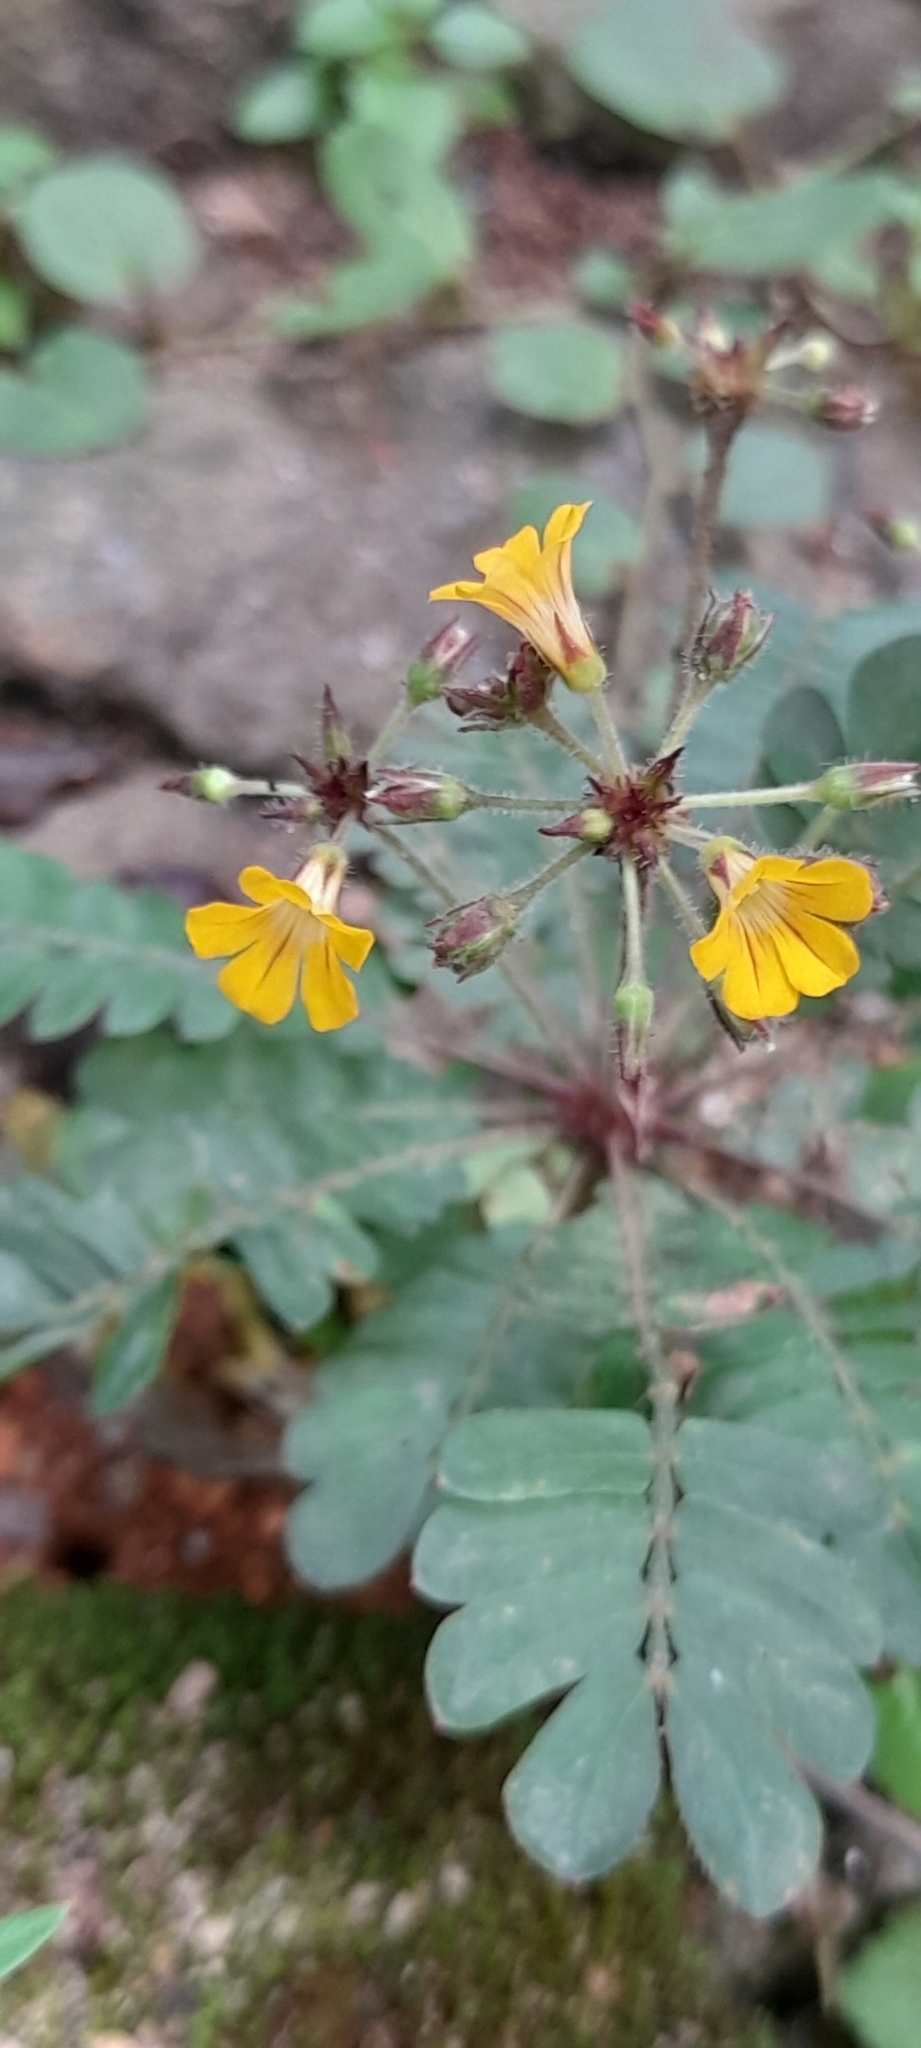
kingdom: Plantae
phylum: Tracheophyta
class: Magnoliopsida
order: Oxalidales
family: Oxalidaceae
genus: Biophytum
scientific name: Biophytum sensitivum
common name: Lifeplant
